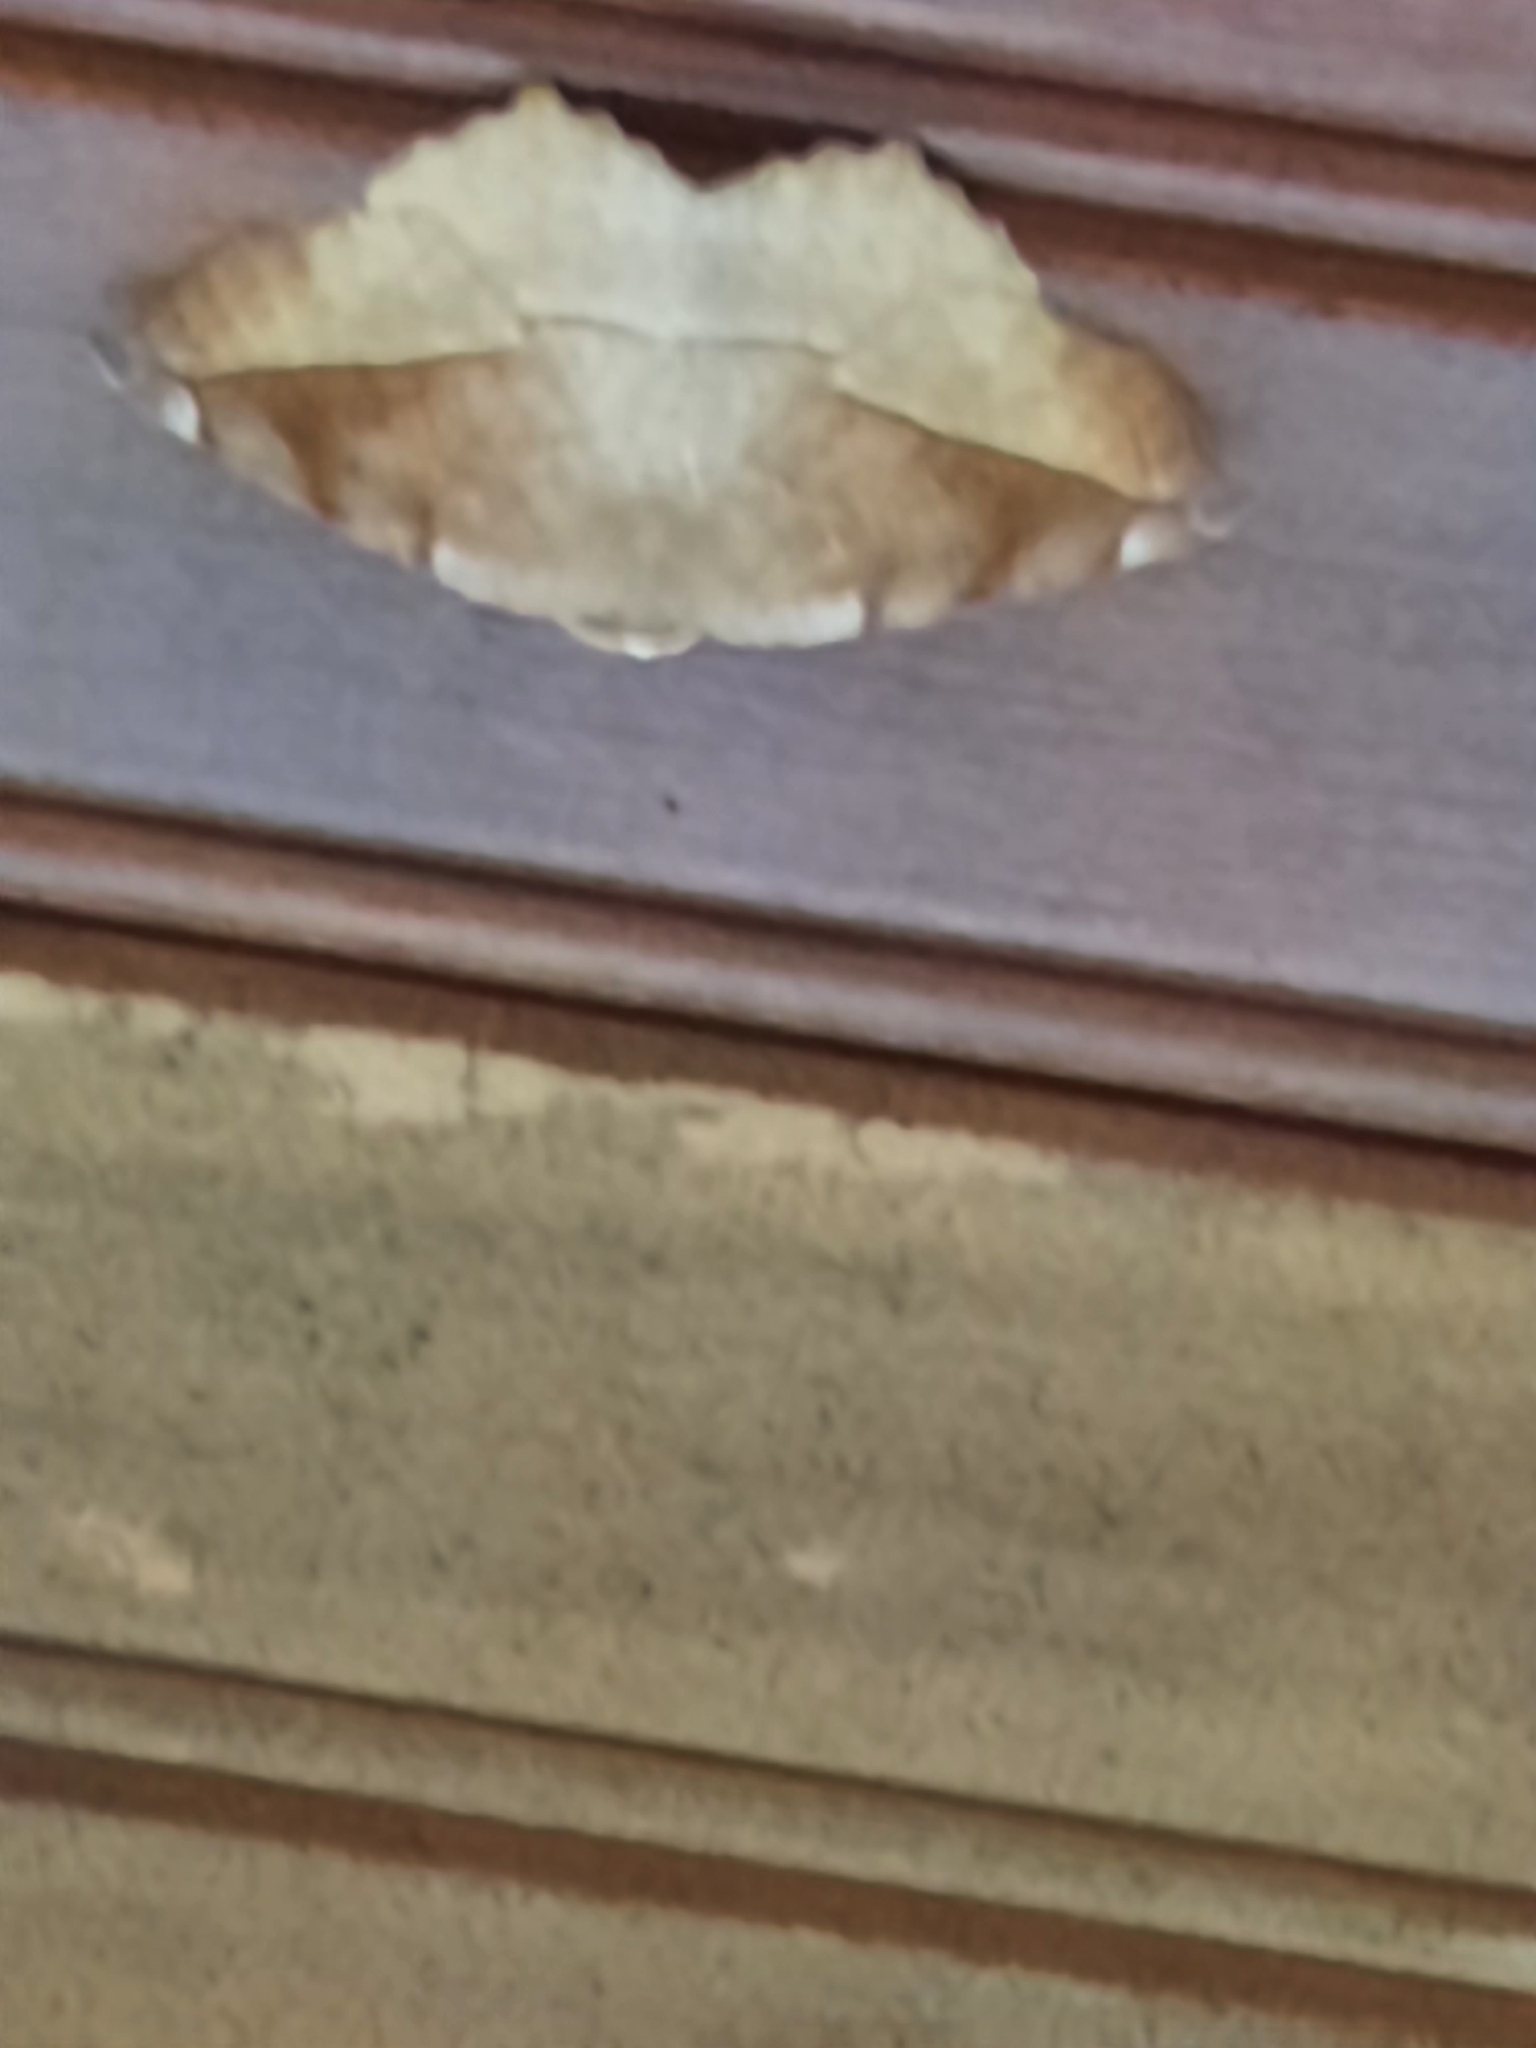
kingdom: Animalia
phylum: Arthropoda
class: Insecta
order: Lepidoptera
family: Geometridae
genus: Eutrapela
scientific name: Eutrapela clemataria
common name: Curved-toothed geometer
